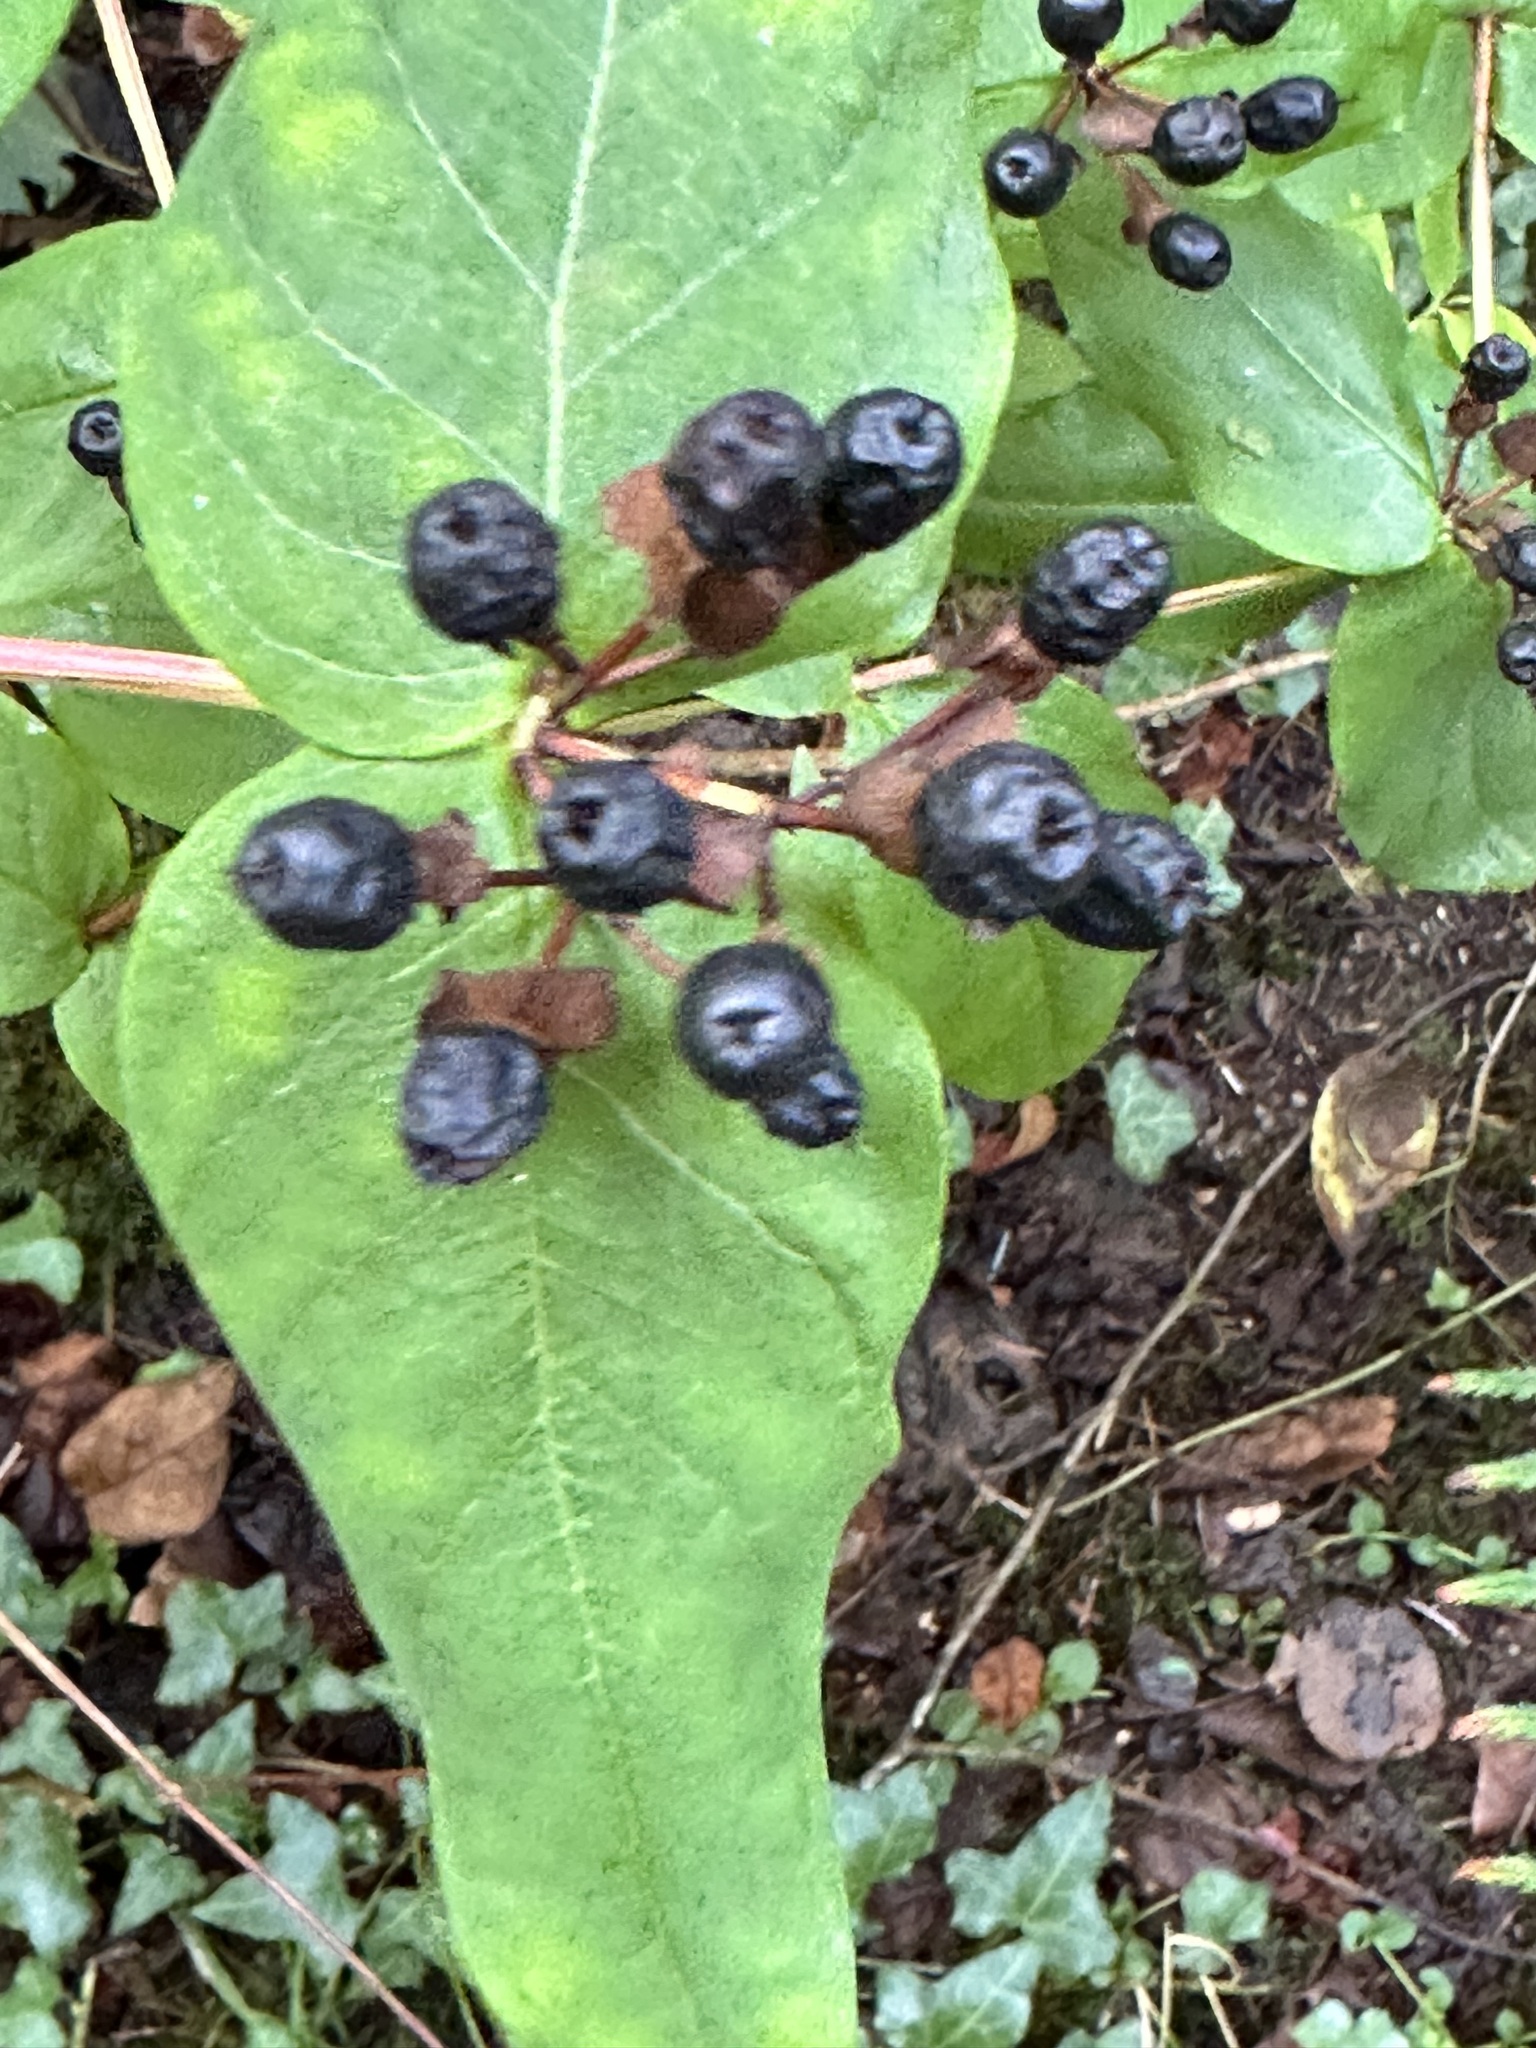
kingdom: Plantae
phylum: Tracheophyta
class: Magnoliopsida
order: Malpighiales
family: Hypericaceae
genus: Hypericum
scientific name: Hypericum androsaemum
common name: Sweet-amber
